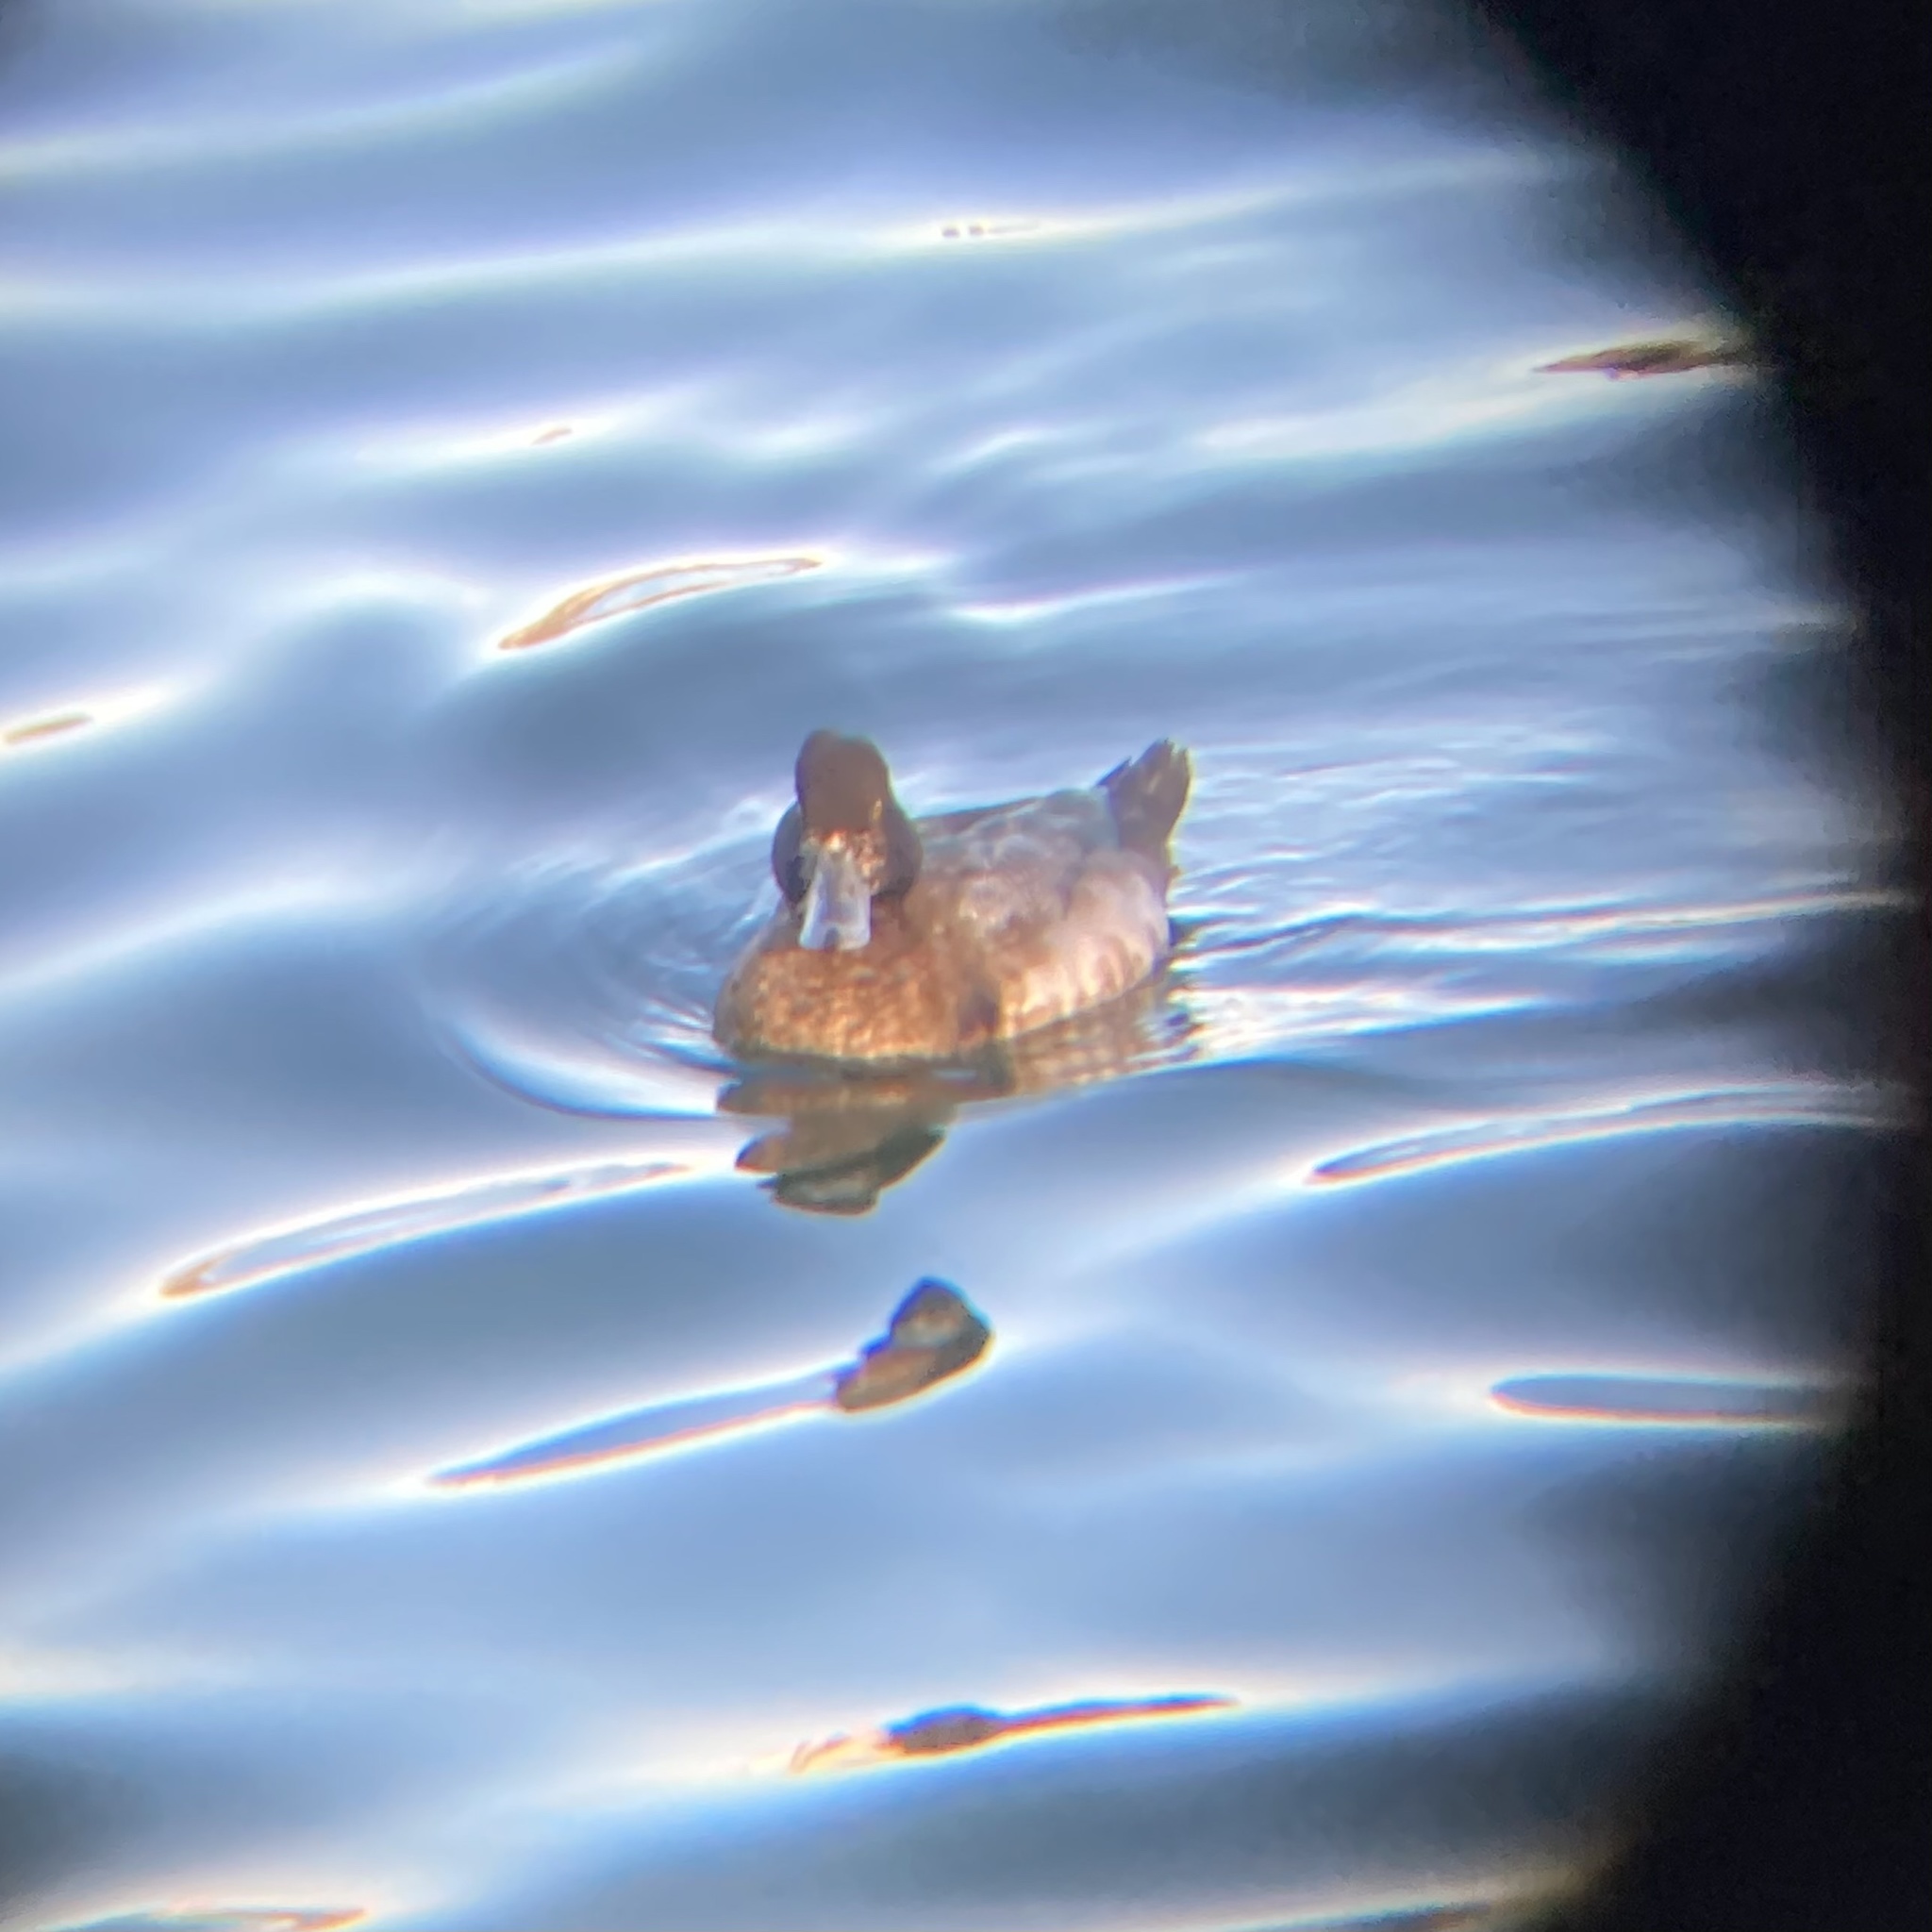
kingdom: Animalia
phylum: Chordata
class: Aves
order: Anseriformes
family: Anatidae
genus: Aythya
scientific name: Aythya affinis
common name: Lesser scaup
